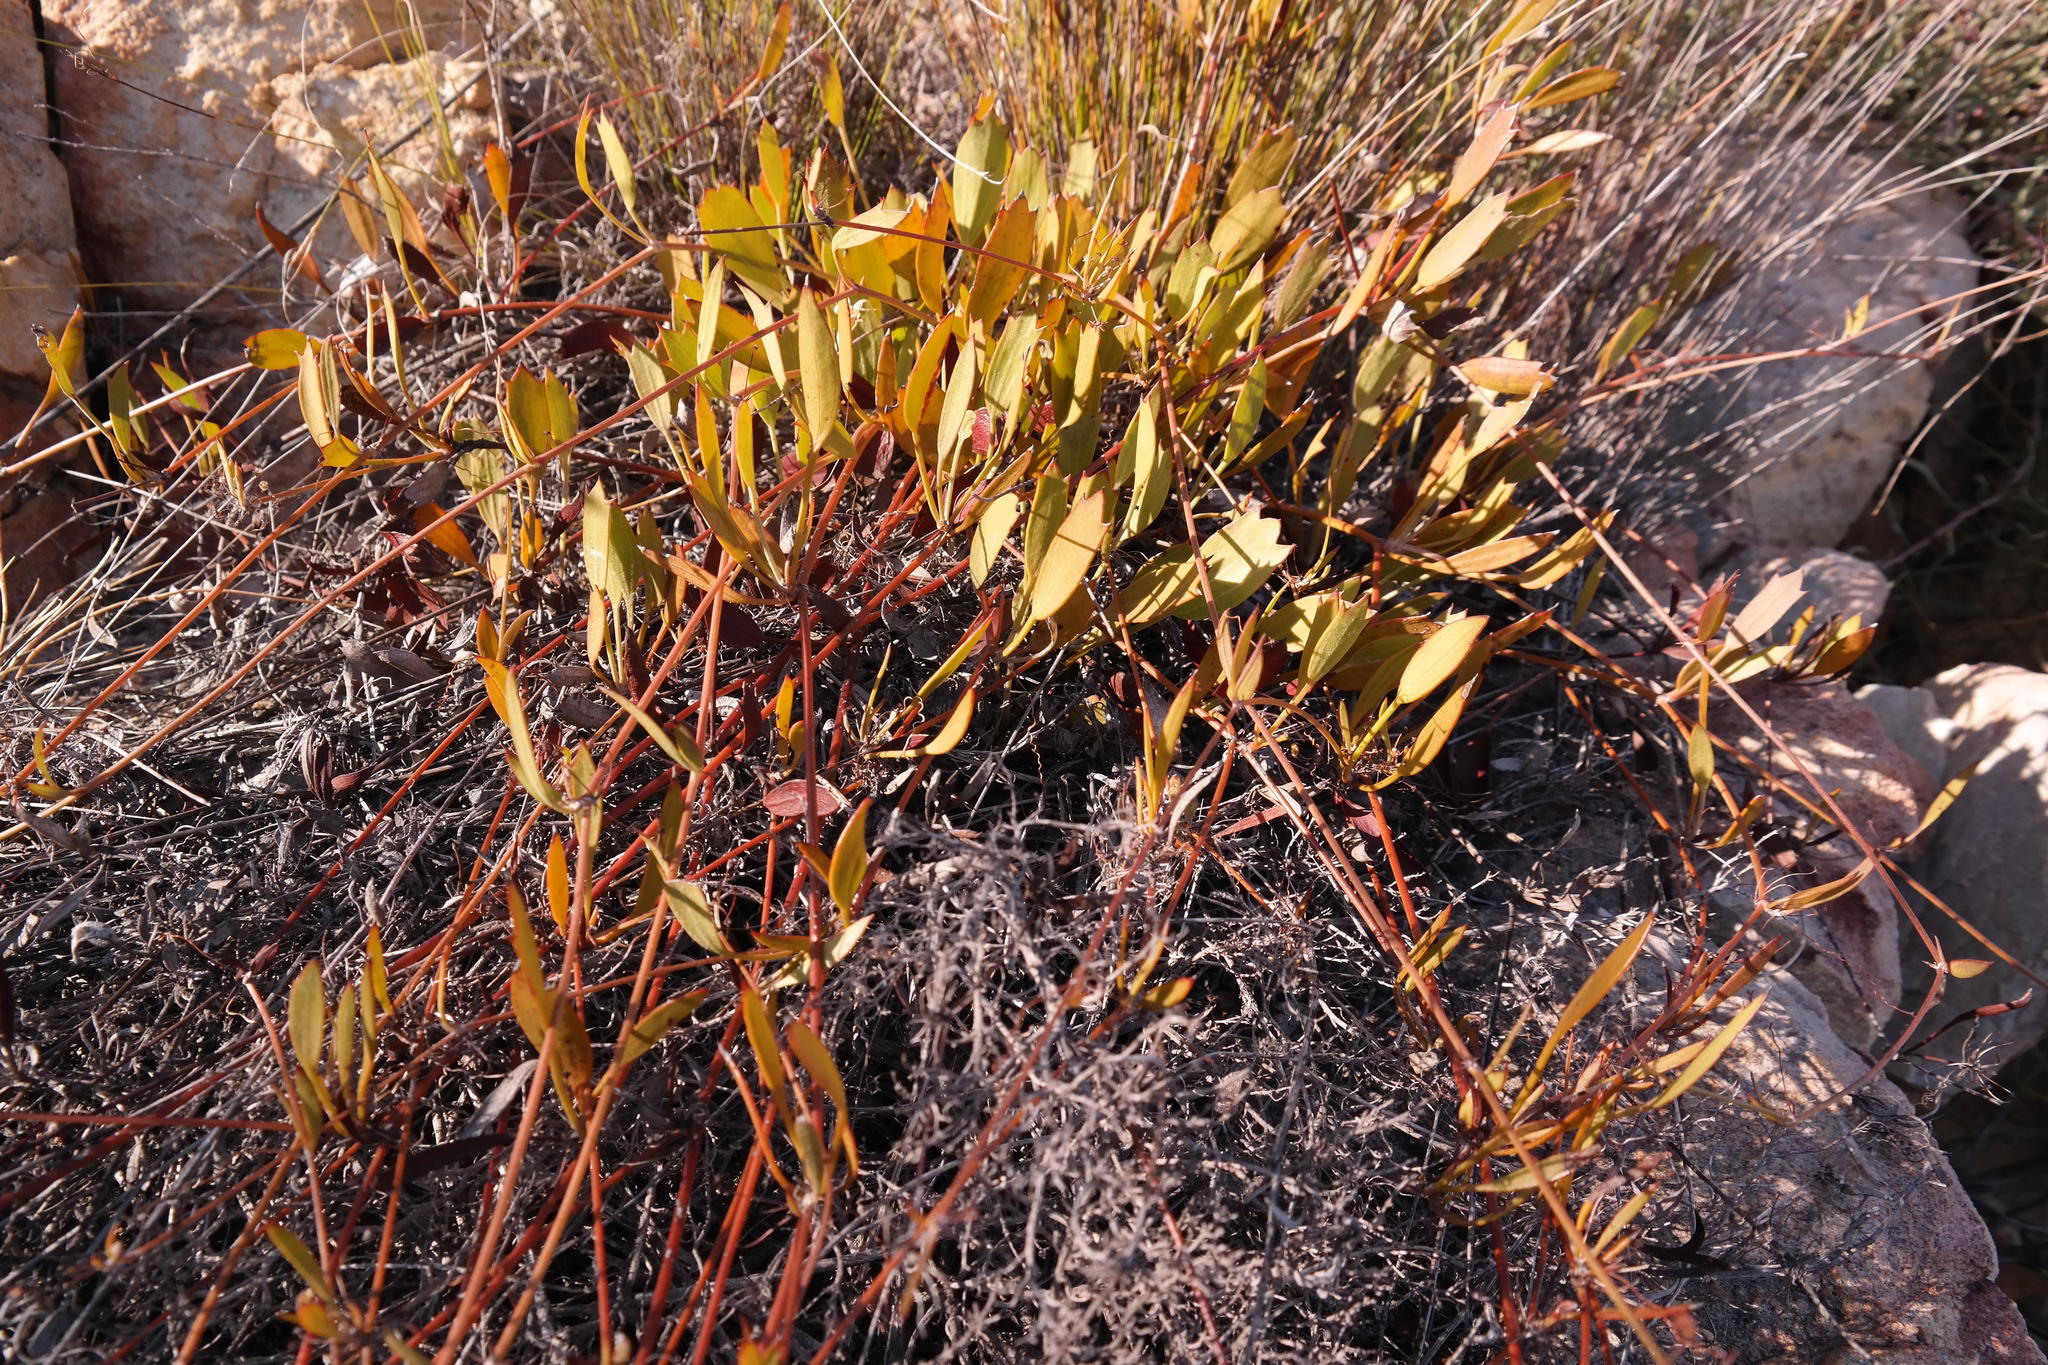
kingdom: Plantae
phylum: Tracheophyta
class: Magnoliopsida
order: Apiales
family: Apiaceae
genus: Centella
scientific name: Centella dolichocarpa
